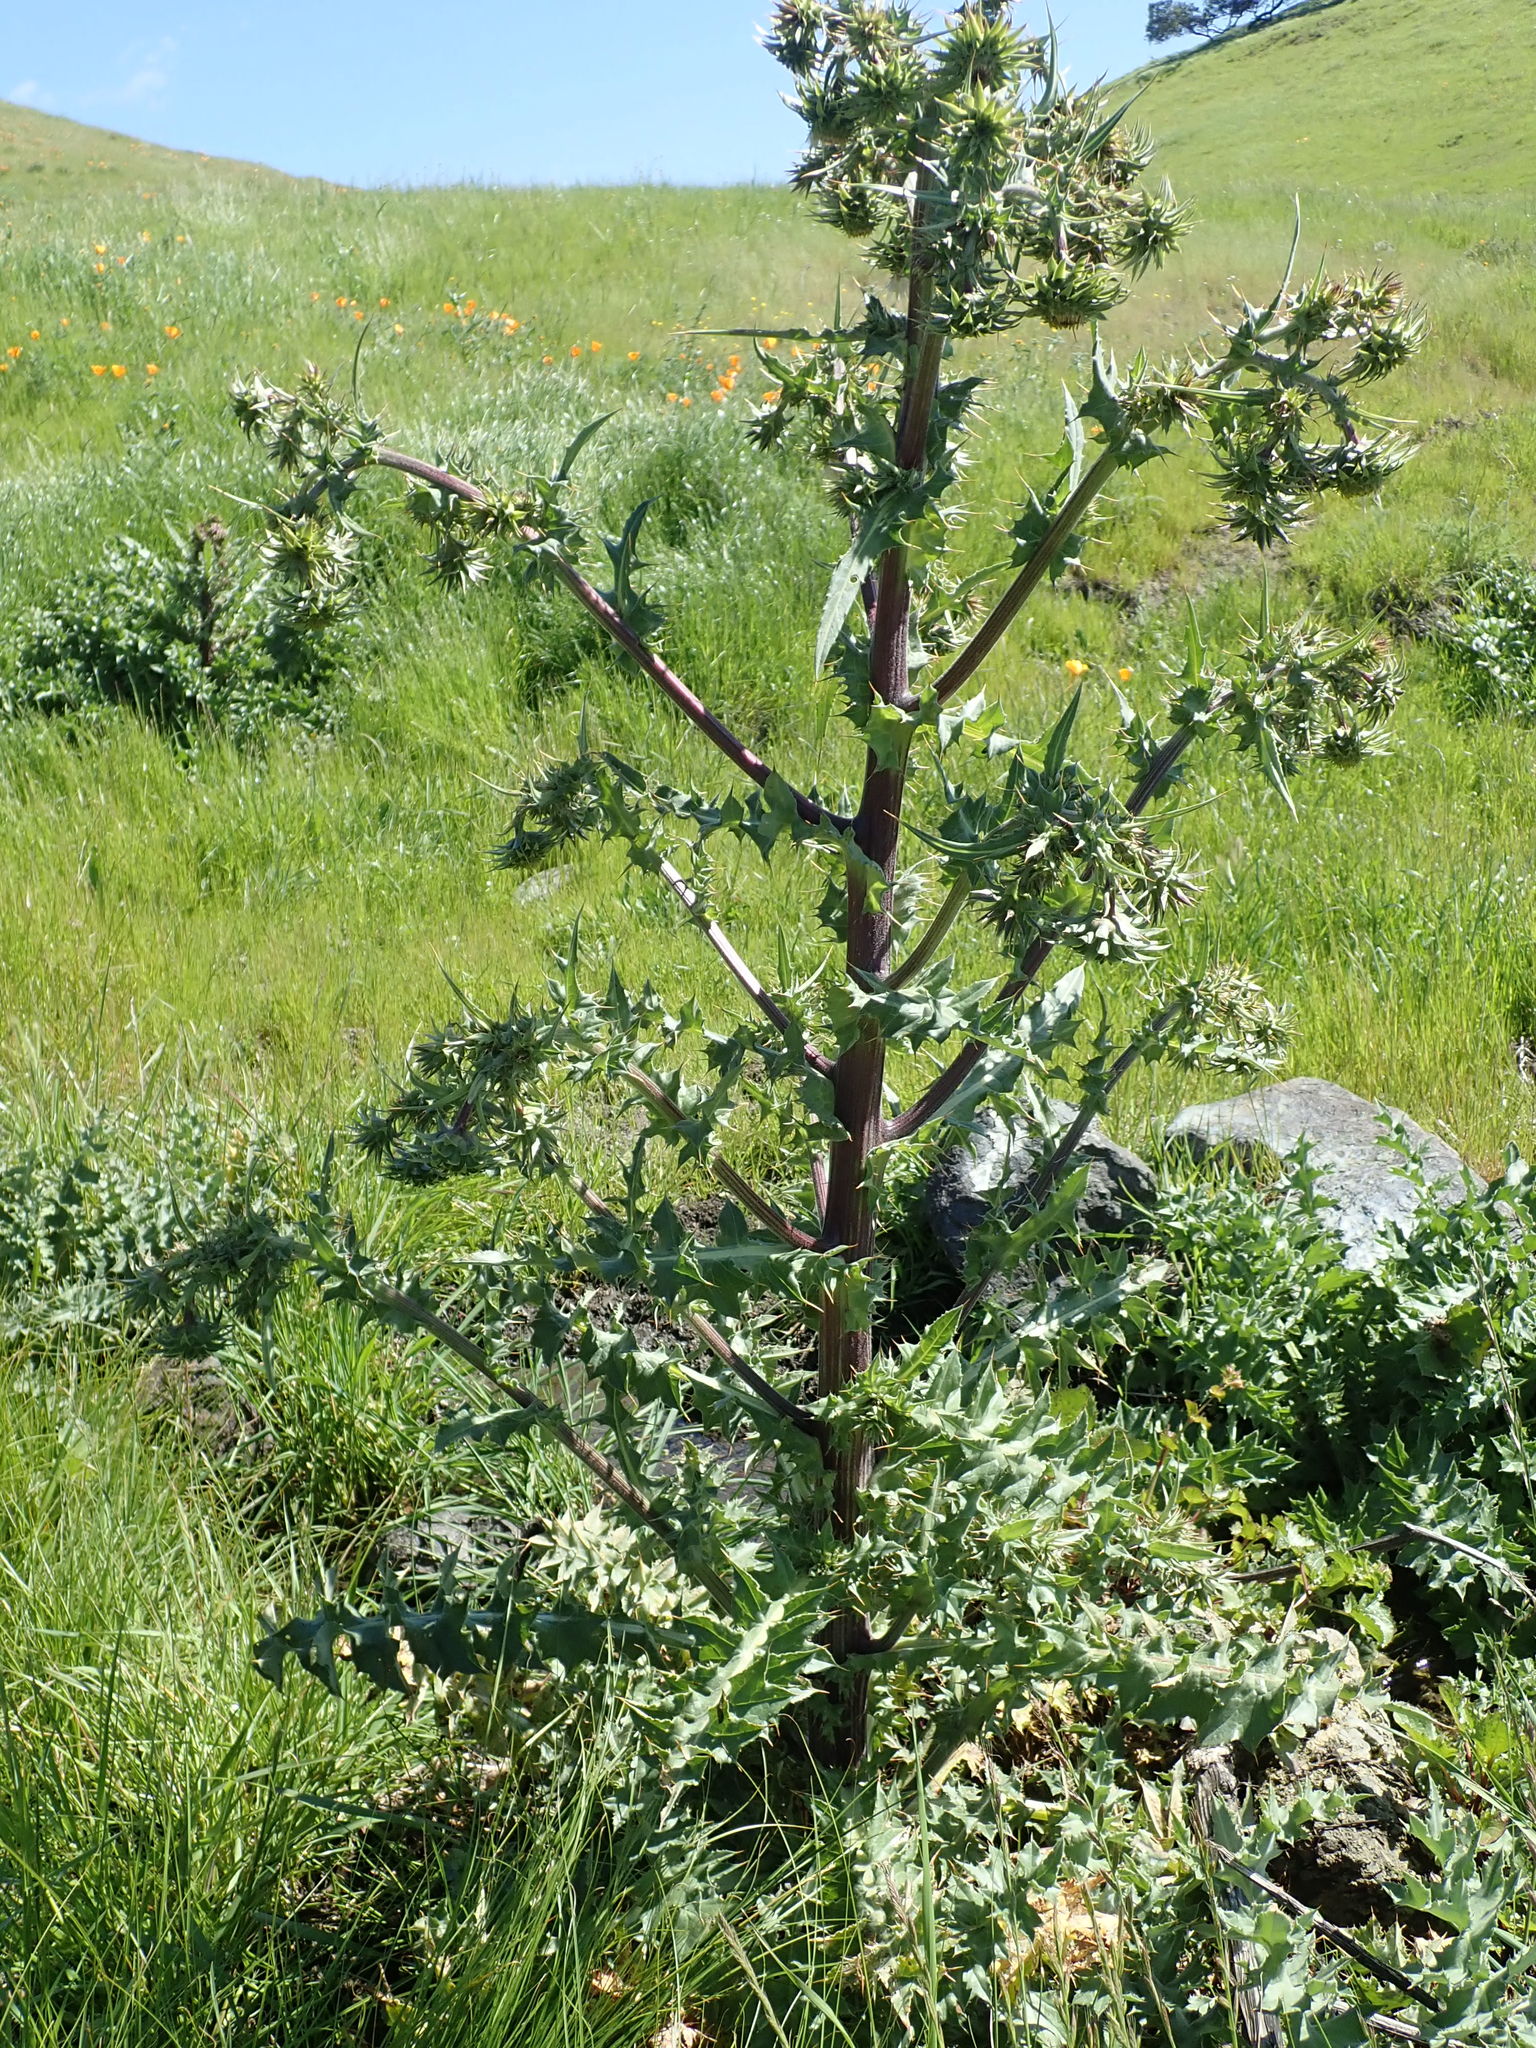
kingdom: Plantae
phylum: Tracheophyta
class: Magnoliopsida
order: Asterales
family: Asteraceae
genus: Cirsium
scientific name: Cirsium fontinale
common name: Fountain thistle
